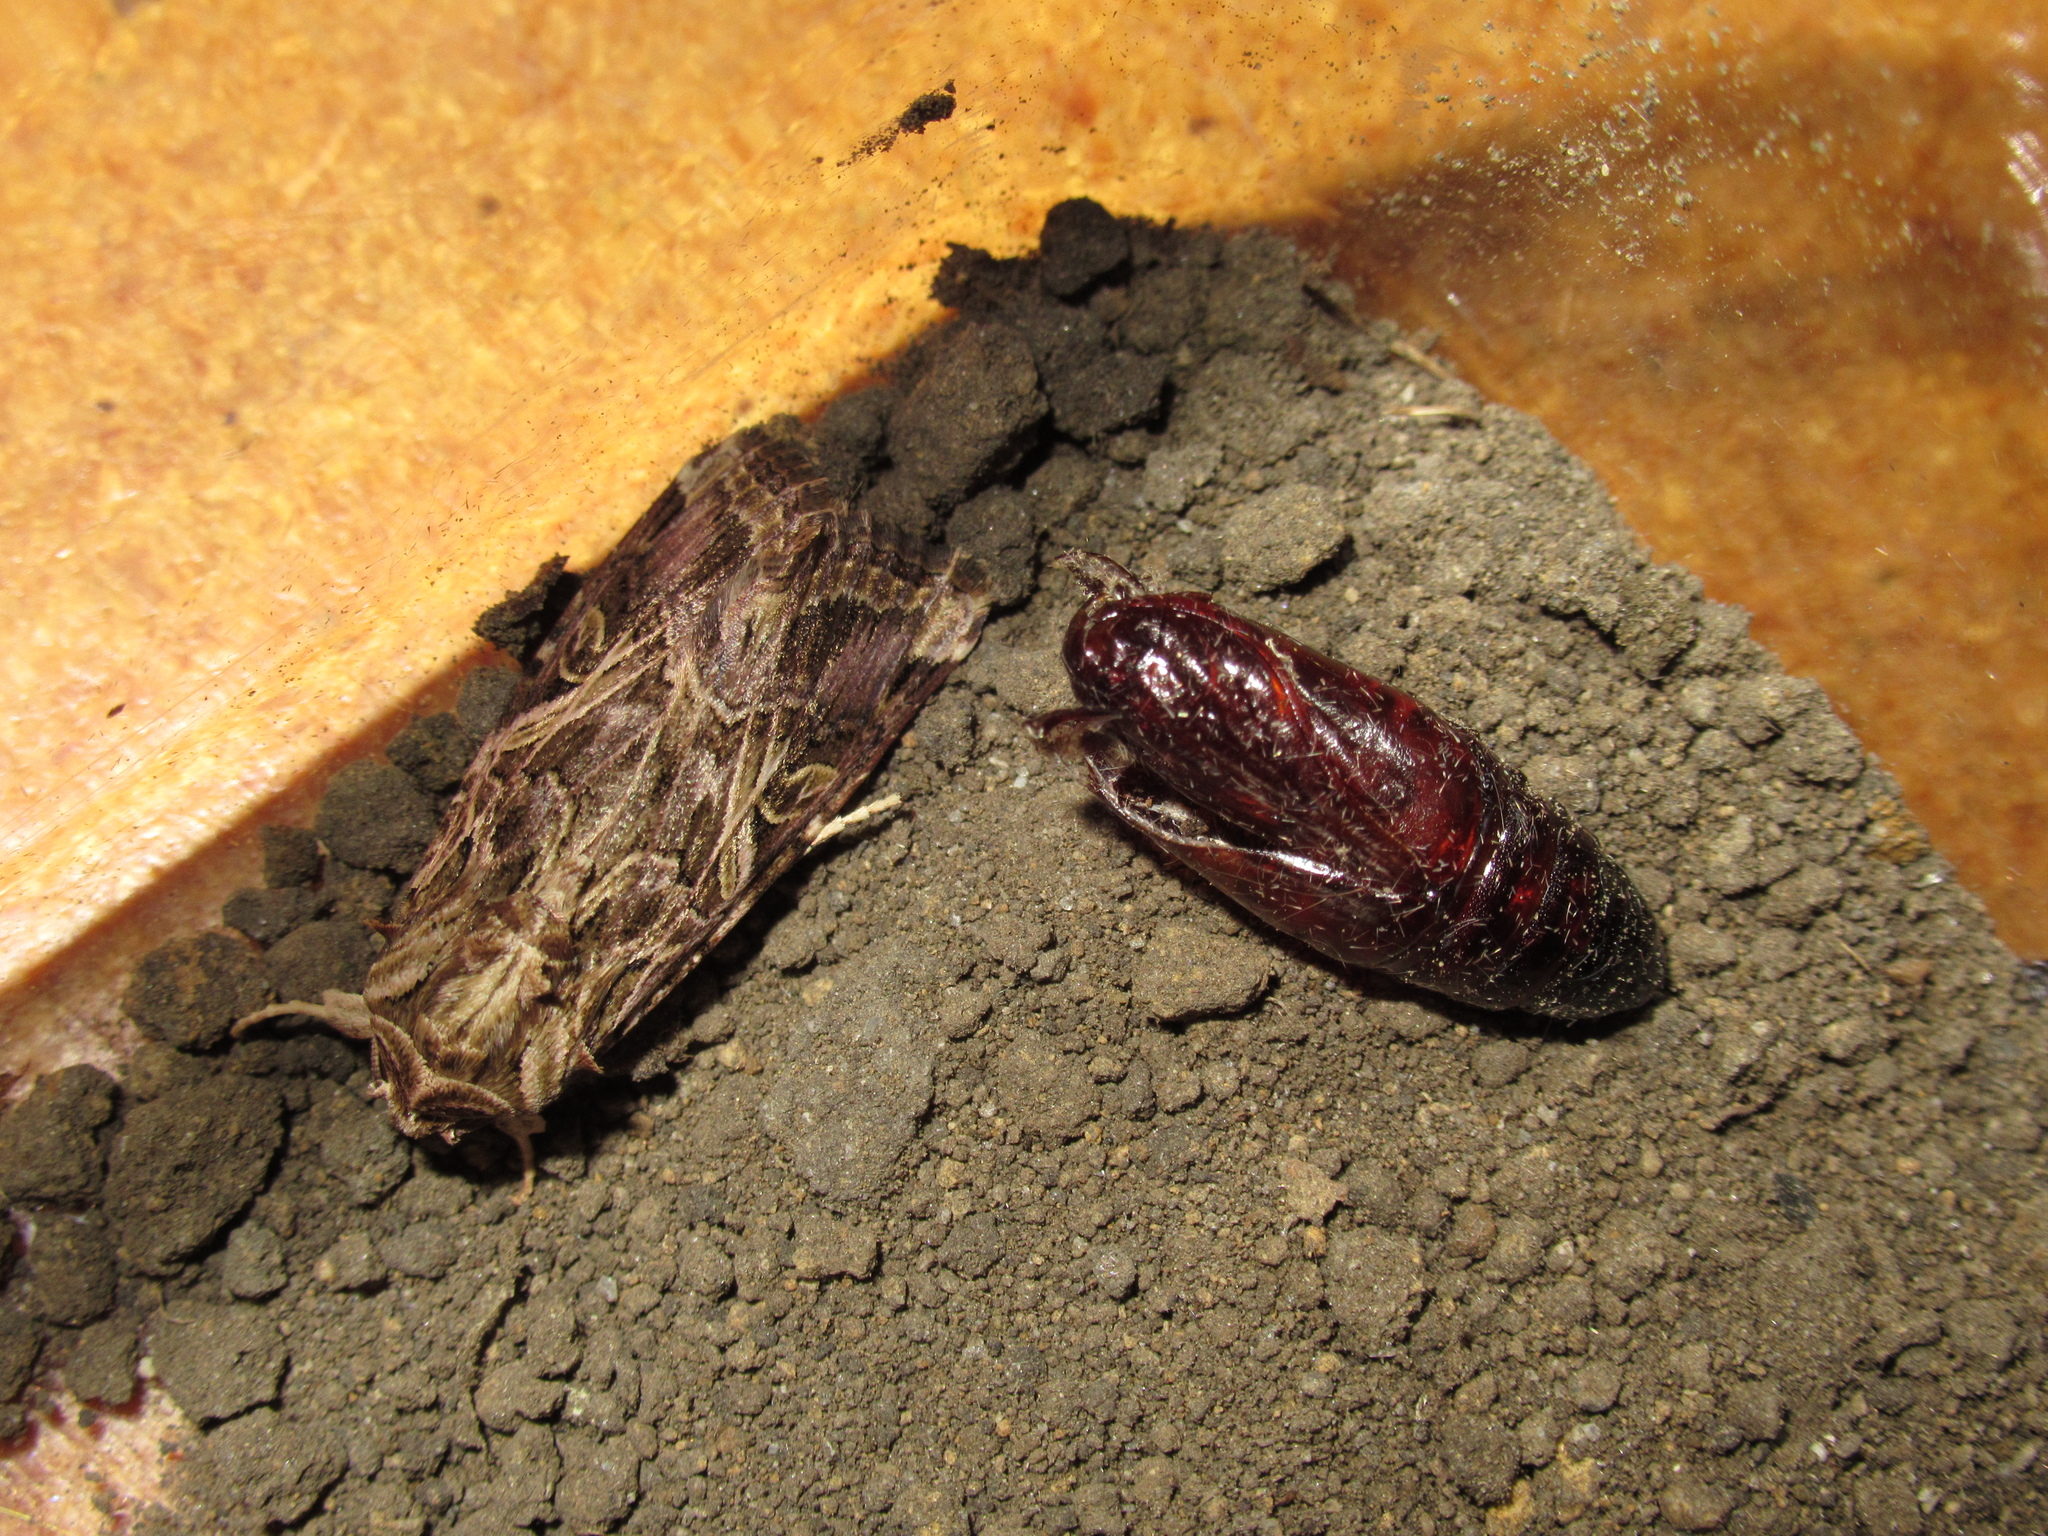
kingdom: Animalia
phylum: Arthropoda
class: Insecta
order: Lepidoptera
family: Noctuidae
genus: Spodoptera
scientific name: Spodoptera litura
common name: Asian cotton leafworm
